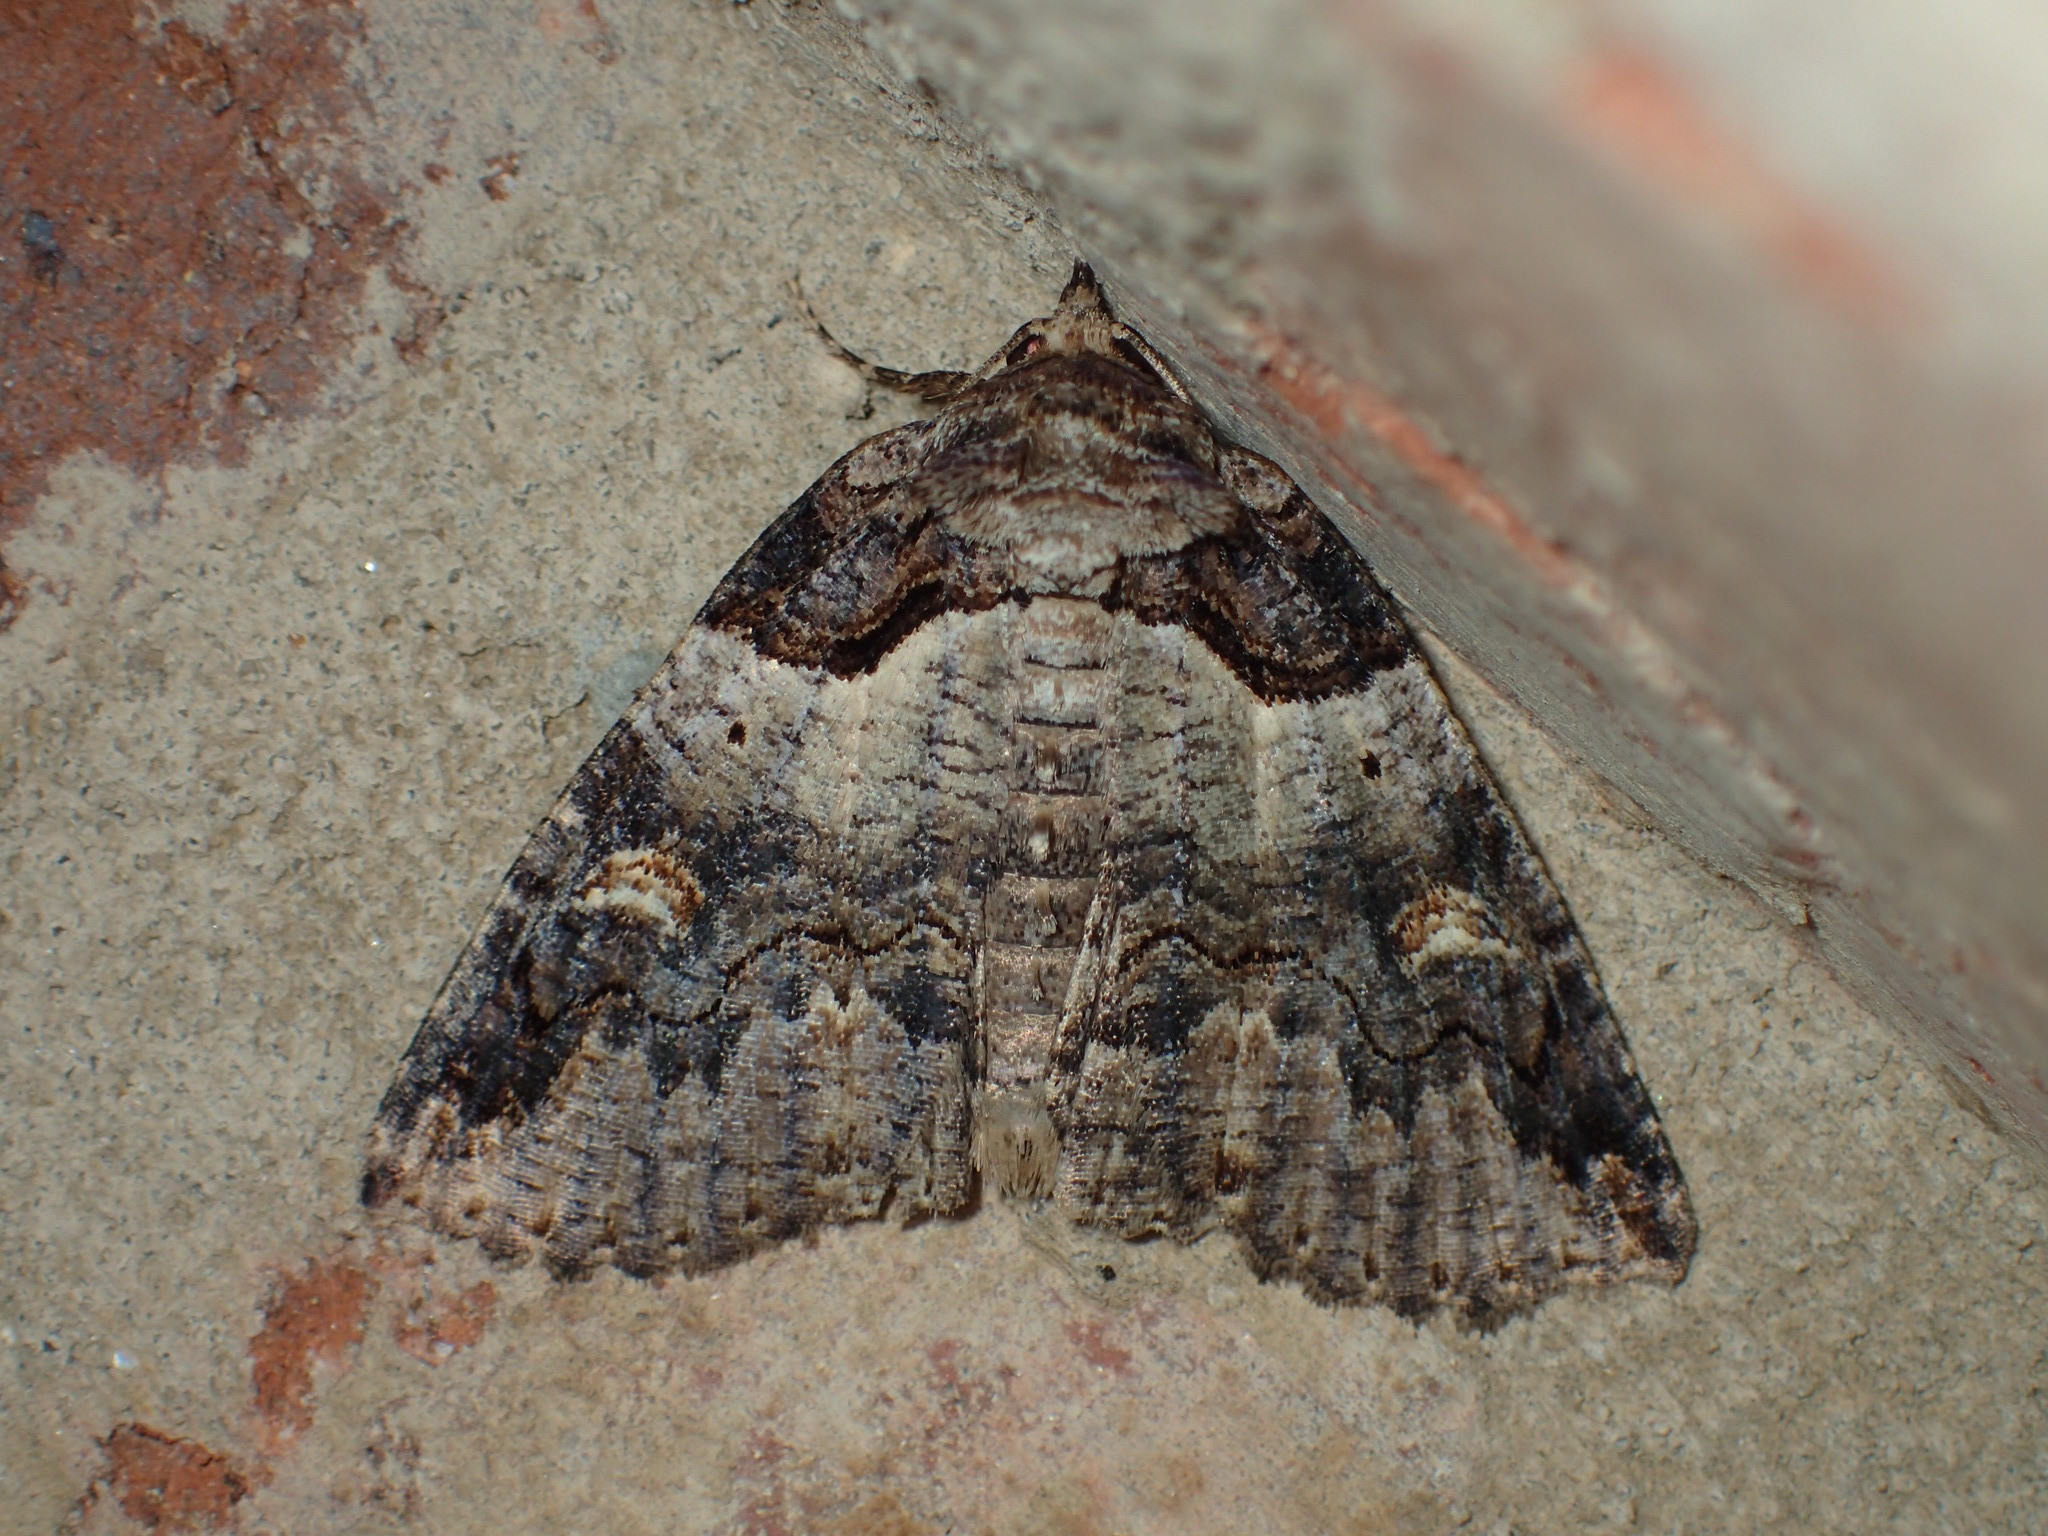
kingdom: Animalia
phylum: Arthropoda
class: Insecta
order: Lepidoptera
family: Erebidae
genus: Zale
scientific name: Zale intenta
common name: Intent zale moth
